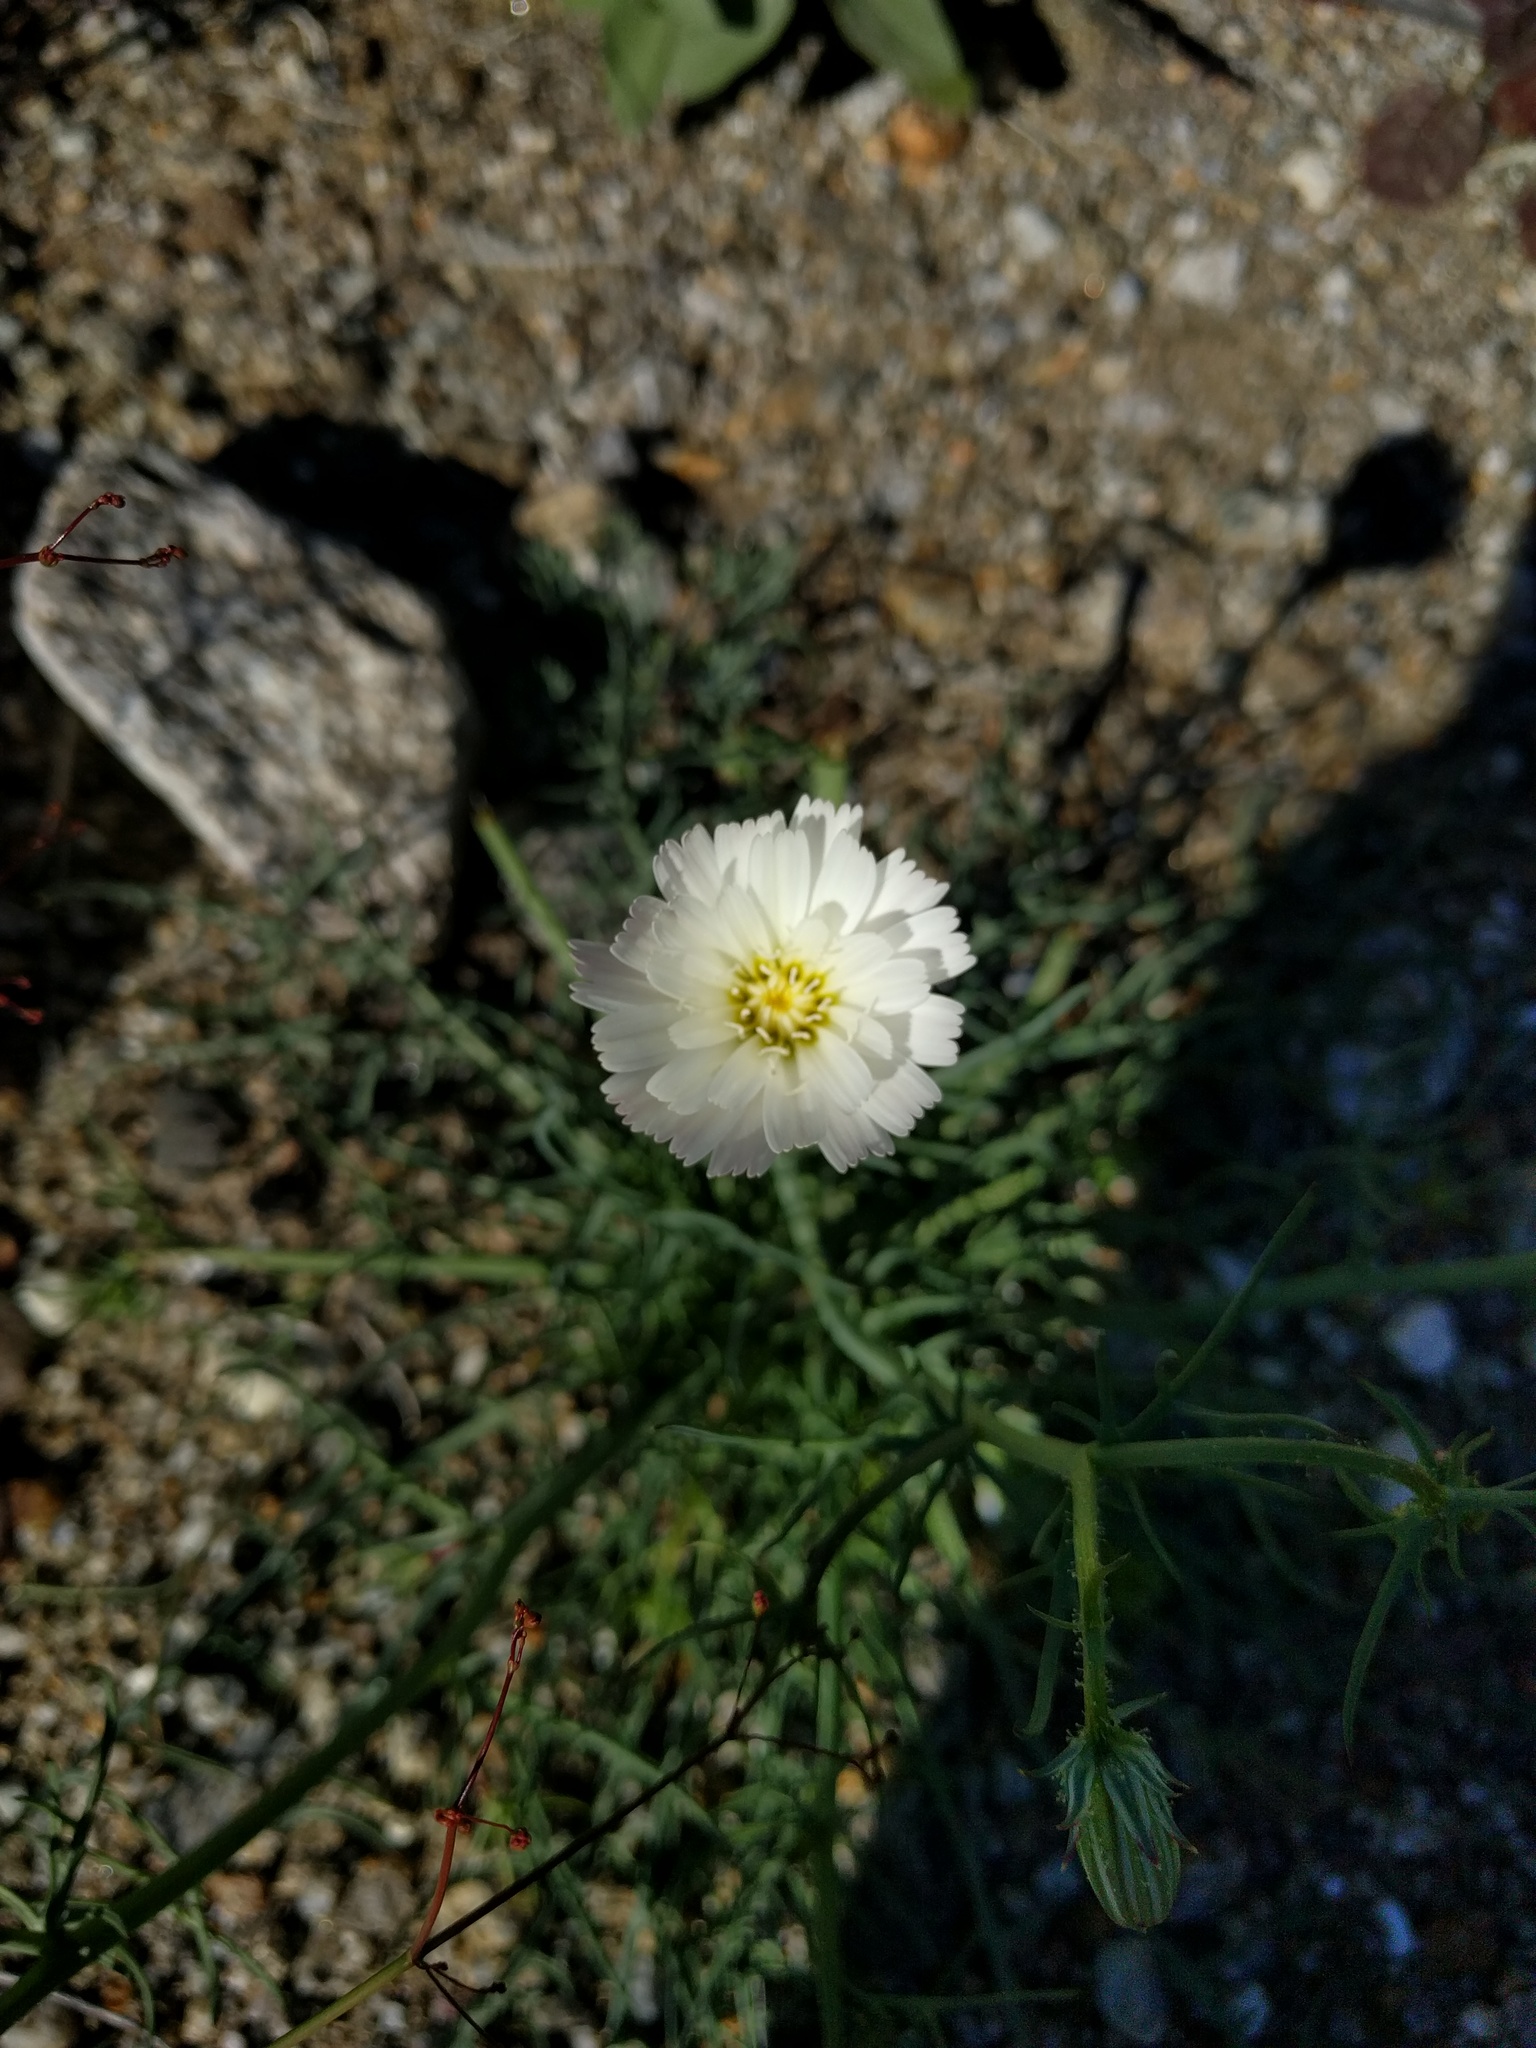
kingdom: Plantae
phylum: Tracheophyta
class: Magnoliopsida
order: Asterales
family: Asteraceae
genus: Calycoseris
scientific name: Calycoseris wrightii
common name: White tackstem
